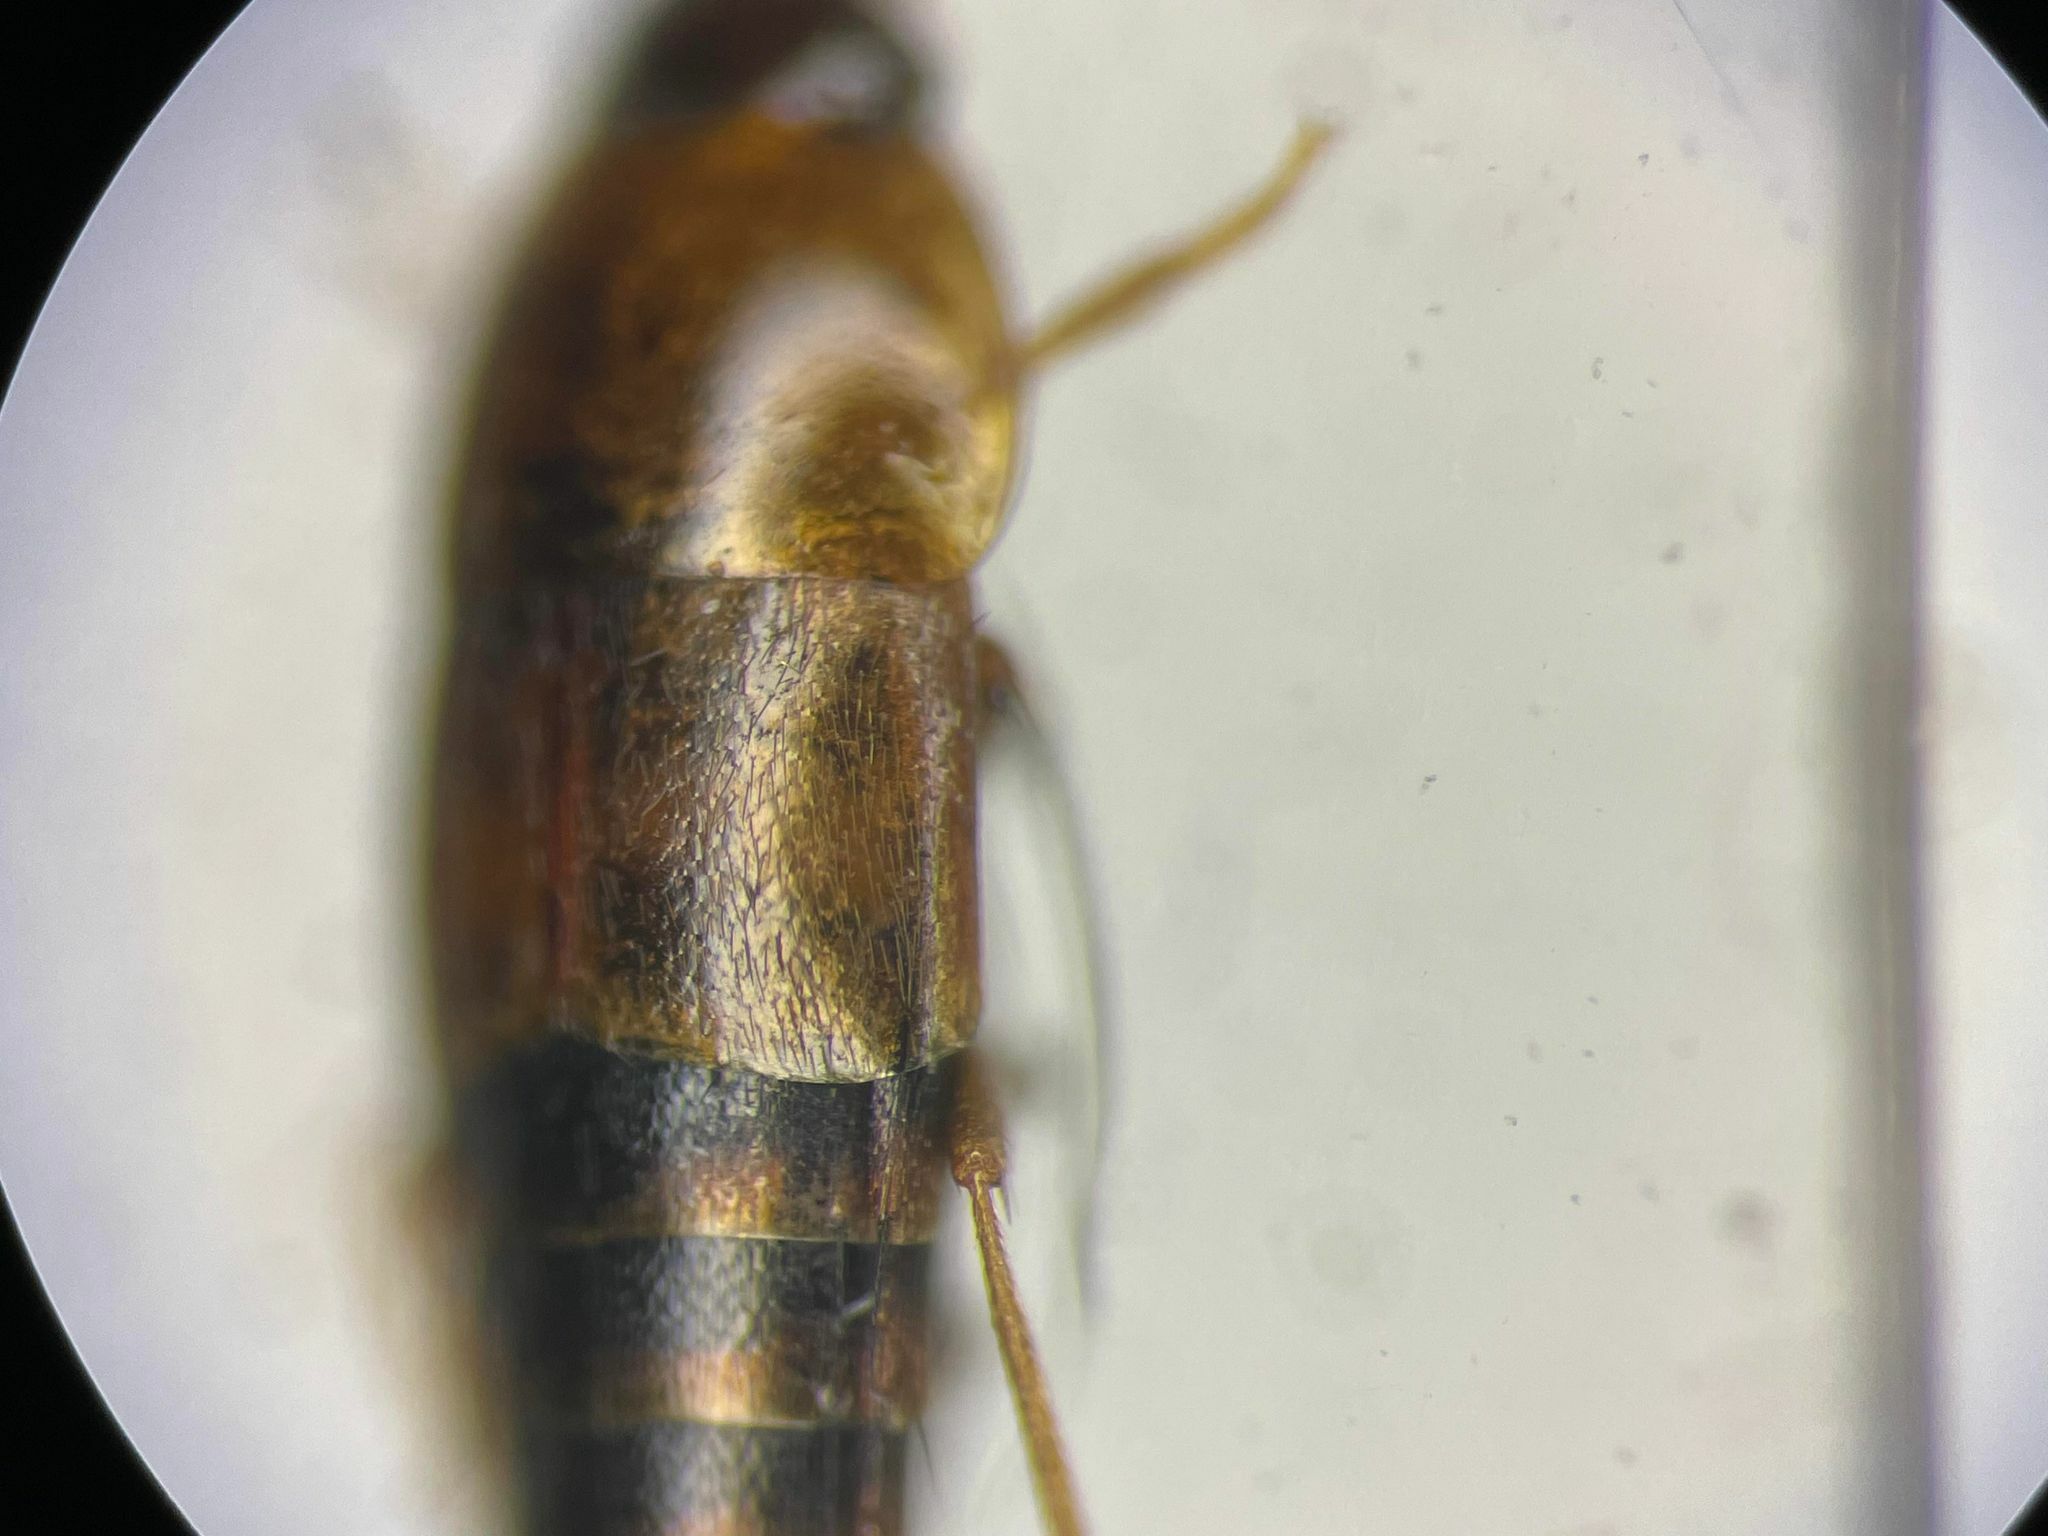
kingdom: Animalia
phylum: Arthropoda
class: Insecta
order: Coleoptera
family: Staphylinidae
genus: Tachyporus
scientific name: Tachyporus abdominalis
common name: Staph beetle
